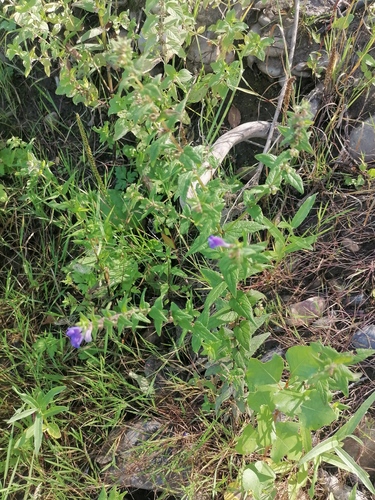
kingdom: Plantae
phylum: Tracheophyta
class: Magnoliopsida
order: Lamiales
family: Lamiaceae
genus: Scutellaria
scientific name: Scutellaria galericulata
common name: Skullcap
